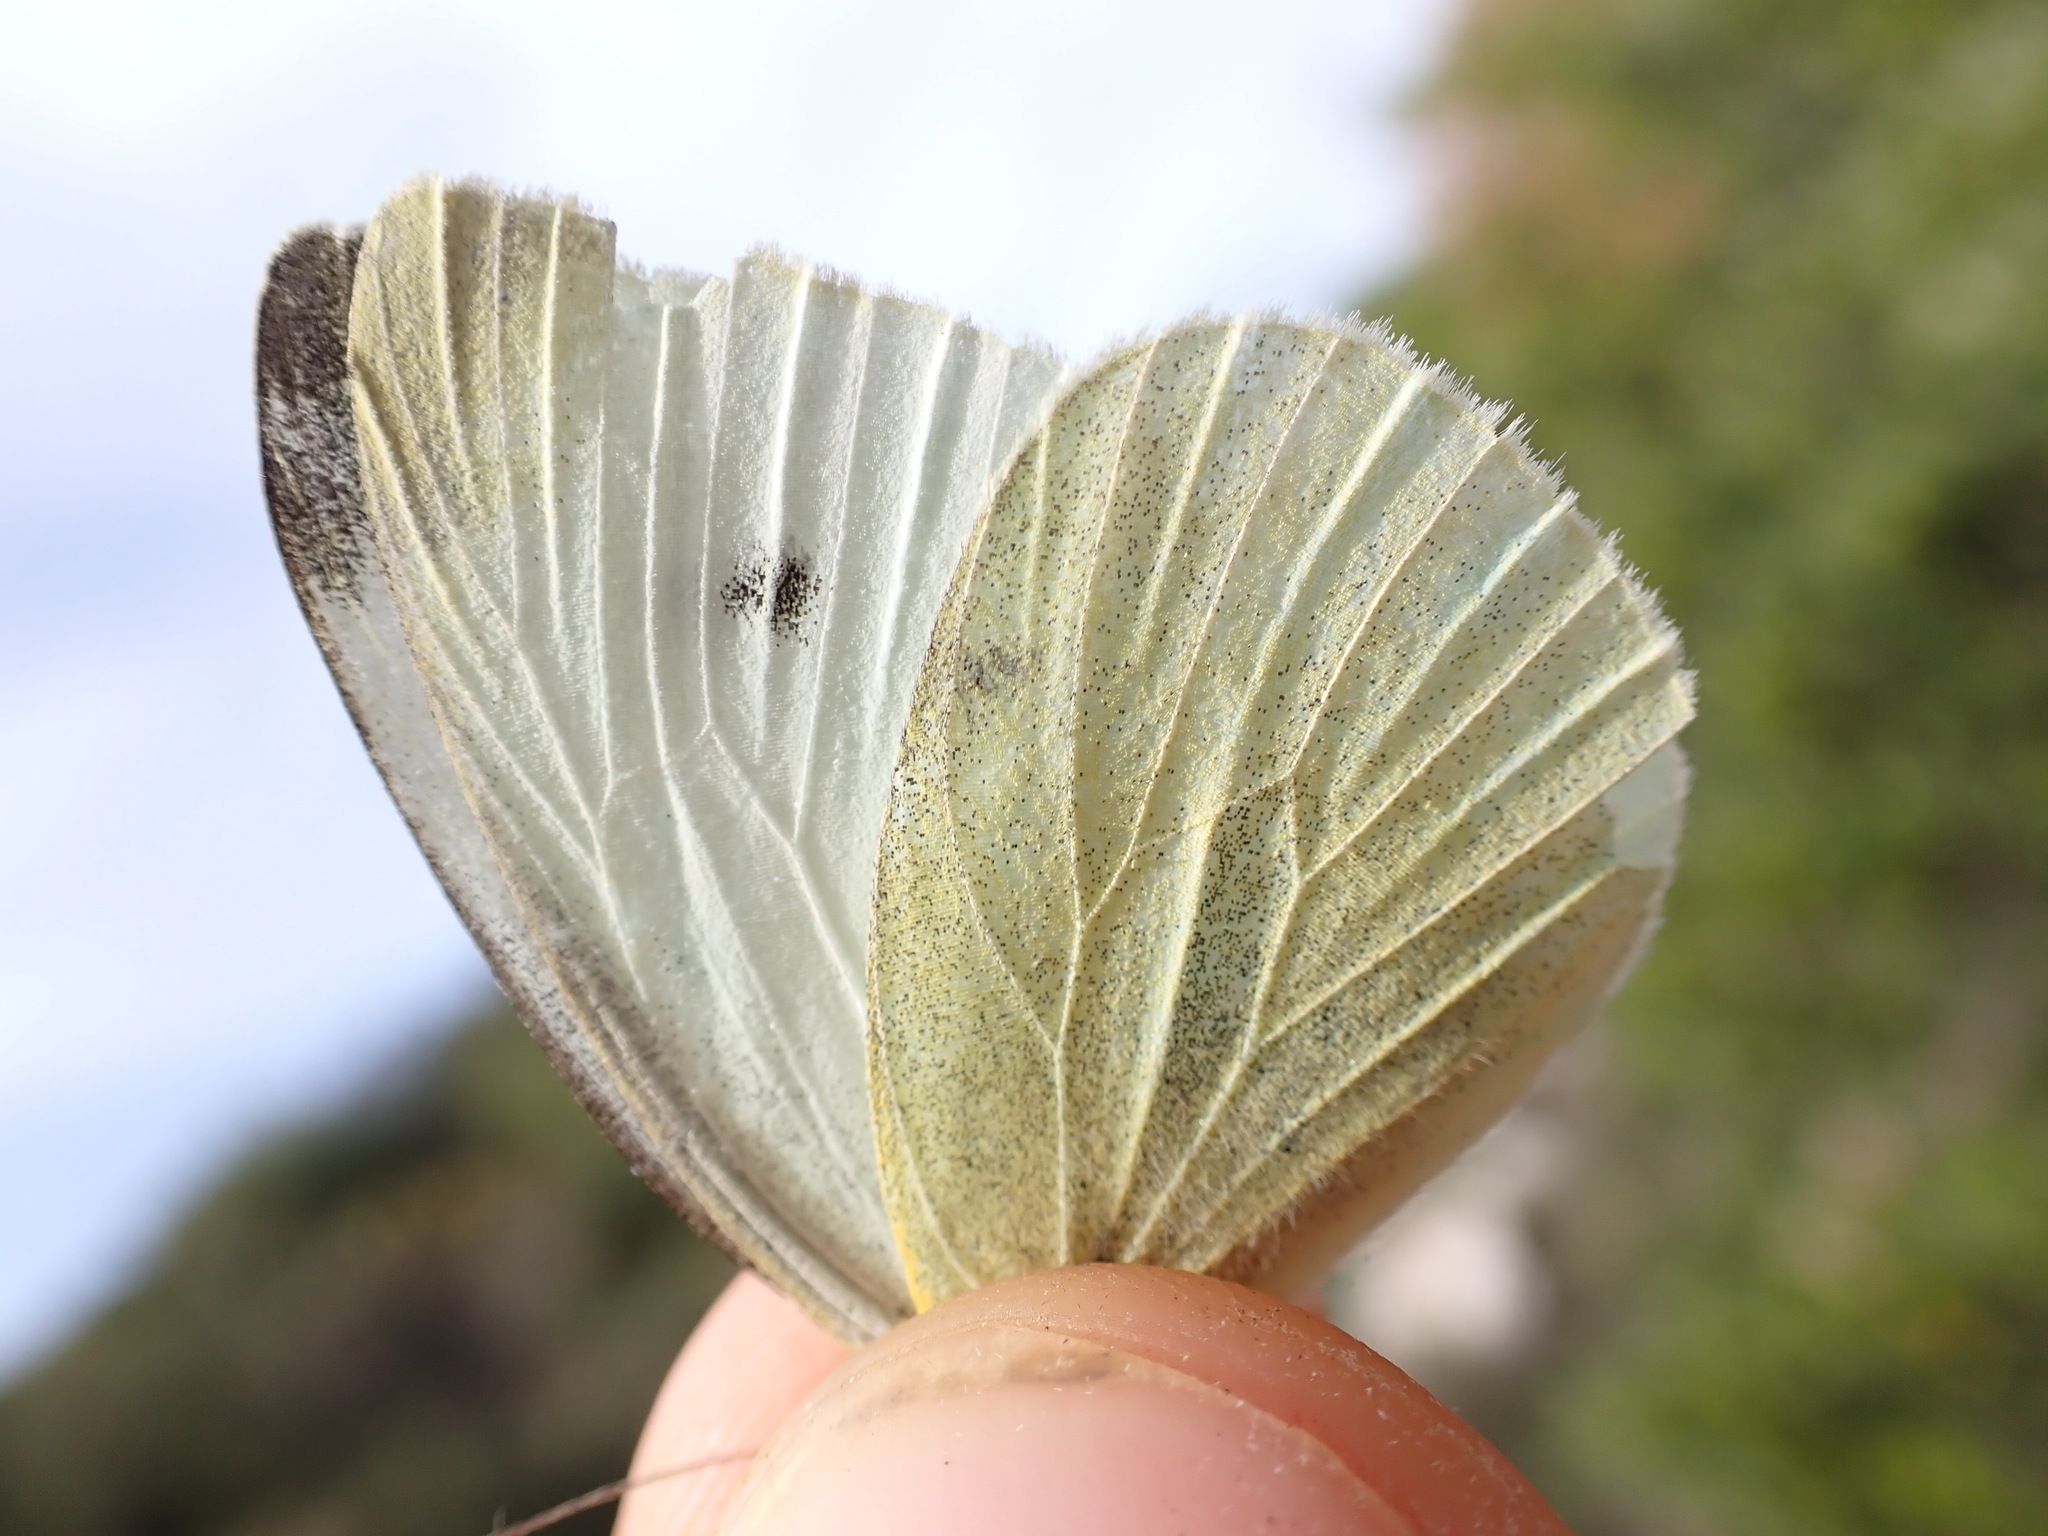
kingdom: Animalia
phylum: Arthropoda
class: Insecta
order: Lepidoptera
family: Pieridae
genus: Pieris
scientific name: Pieris rapae
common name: Small white
